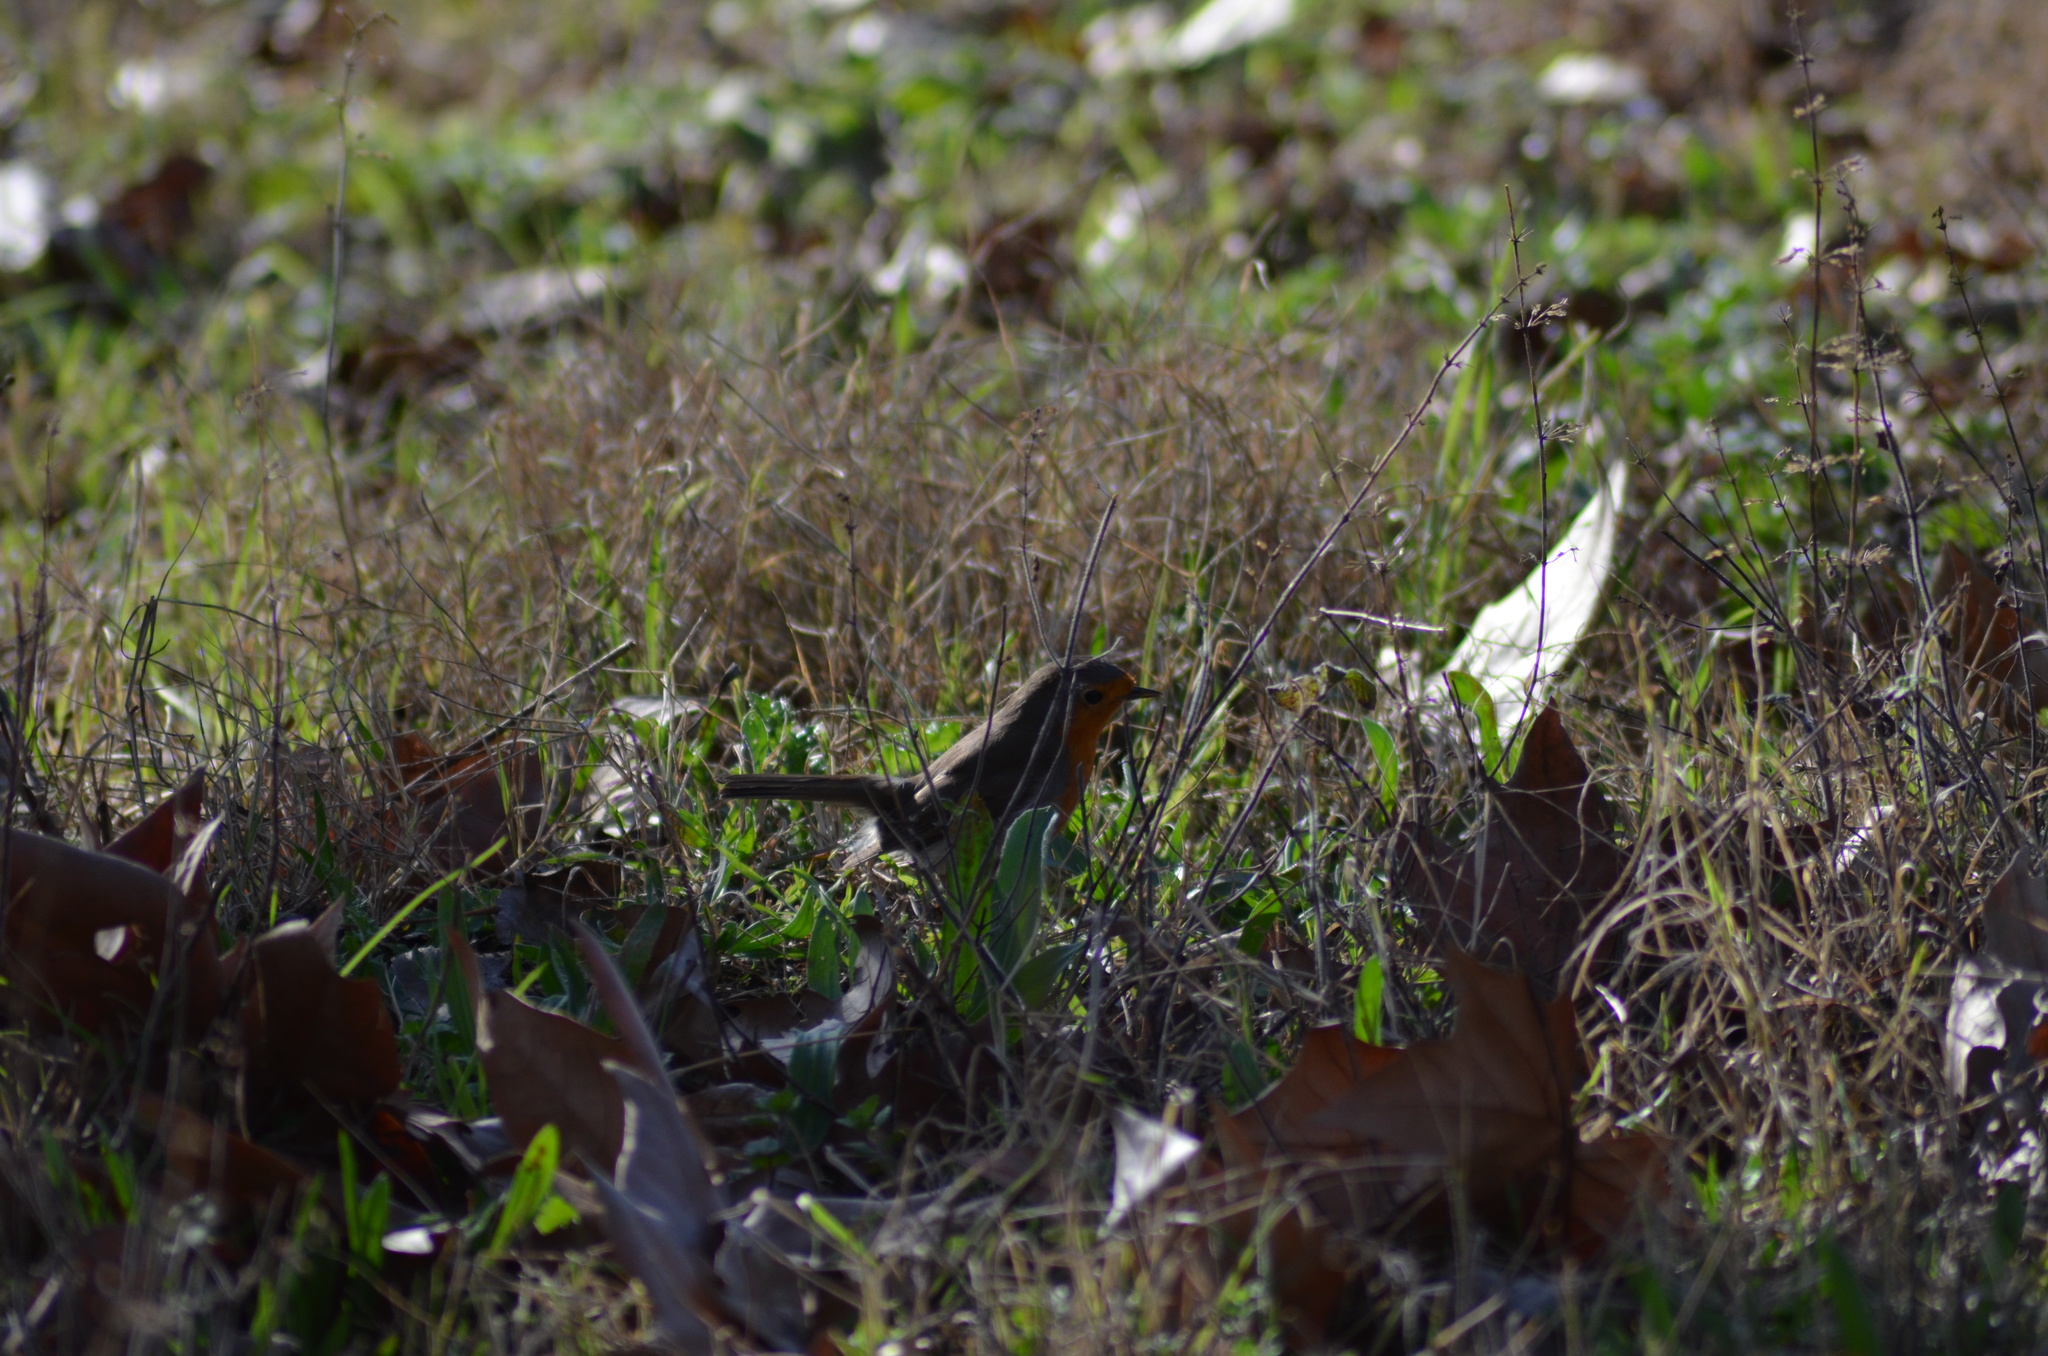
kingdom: Animalia
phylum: Chordata
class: Aves
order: Passeriformes
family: Muscicapidae
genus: Erithacus
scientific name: Erithacus rubecula
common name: European robin
